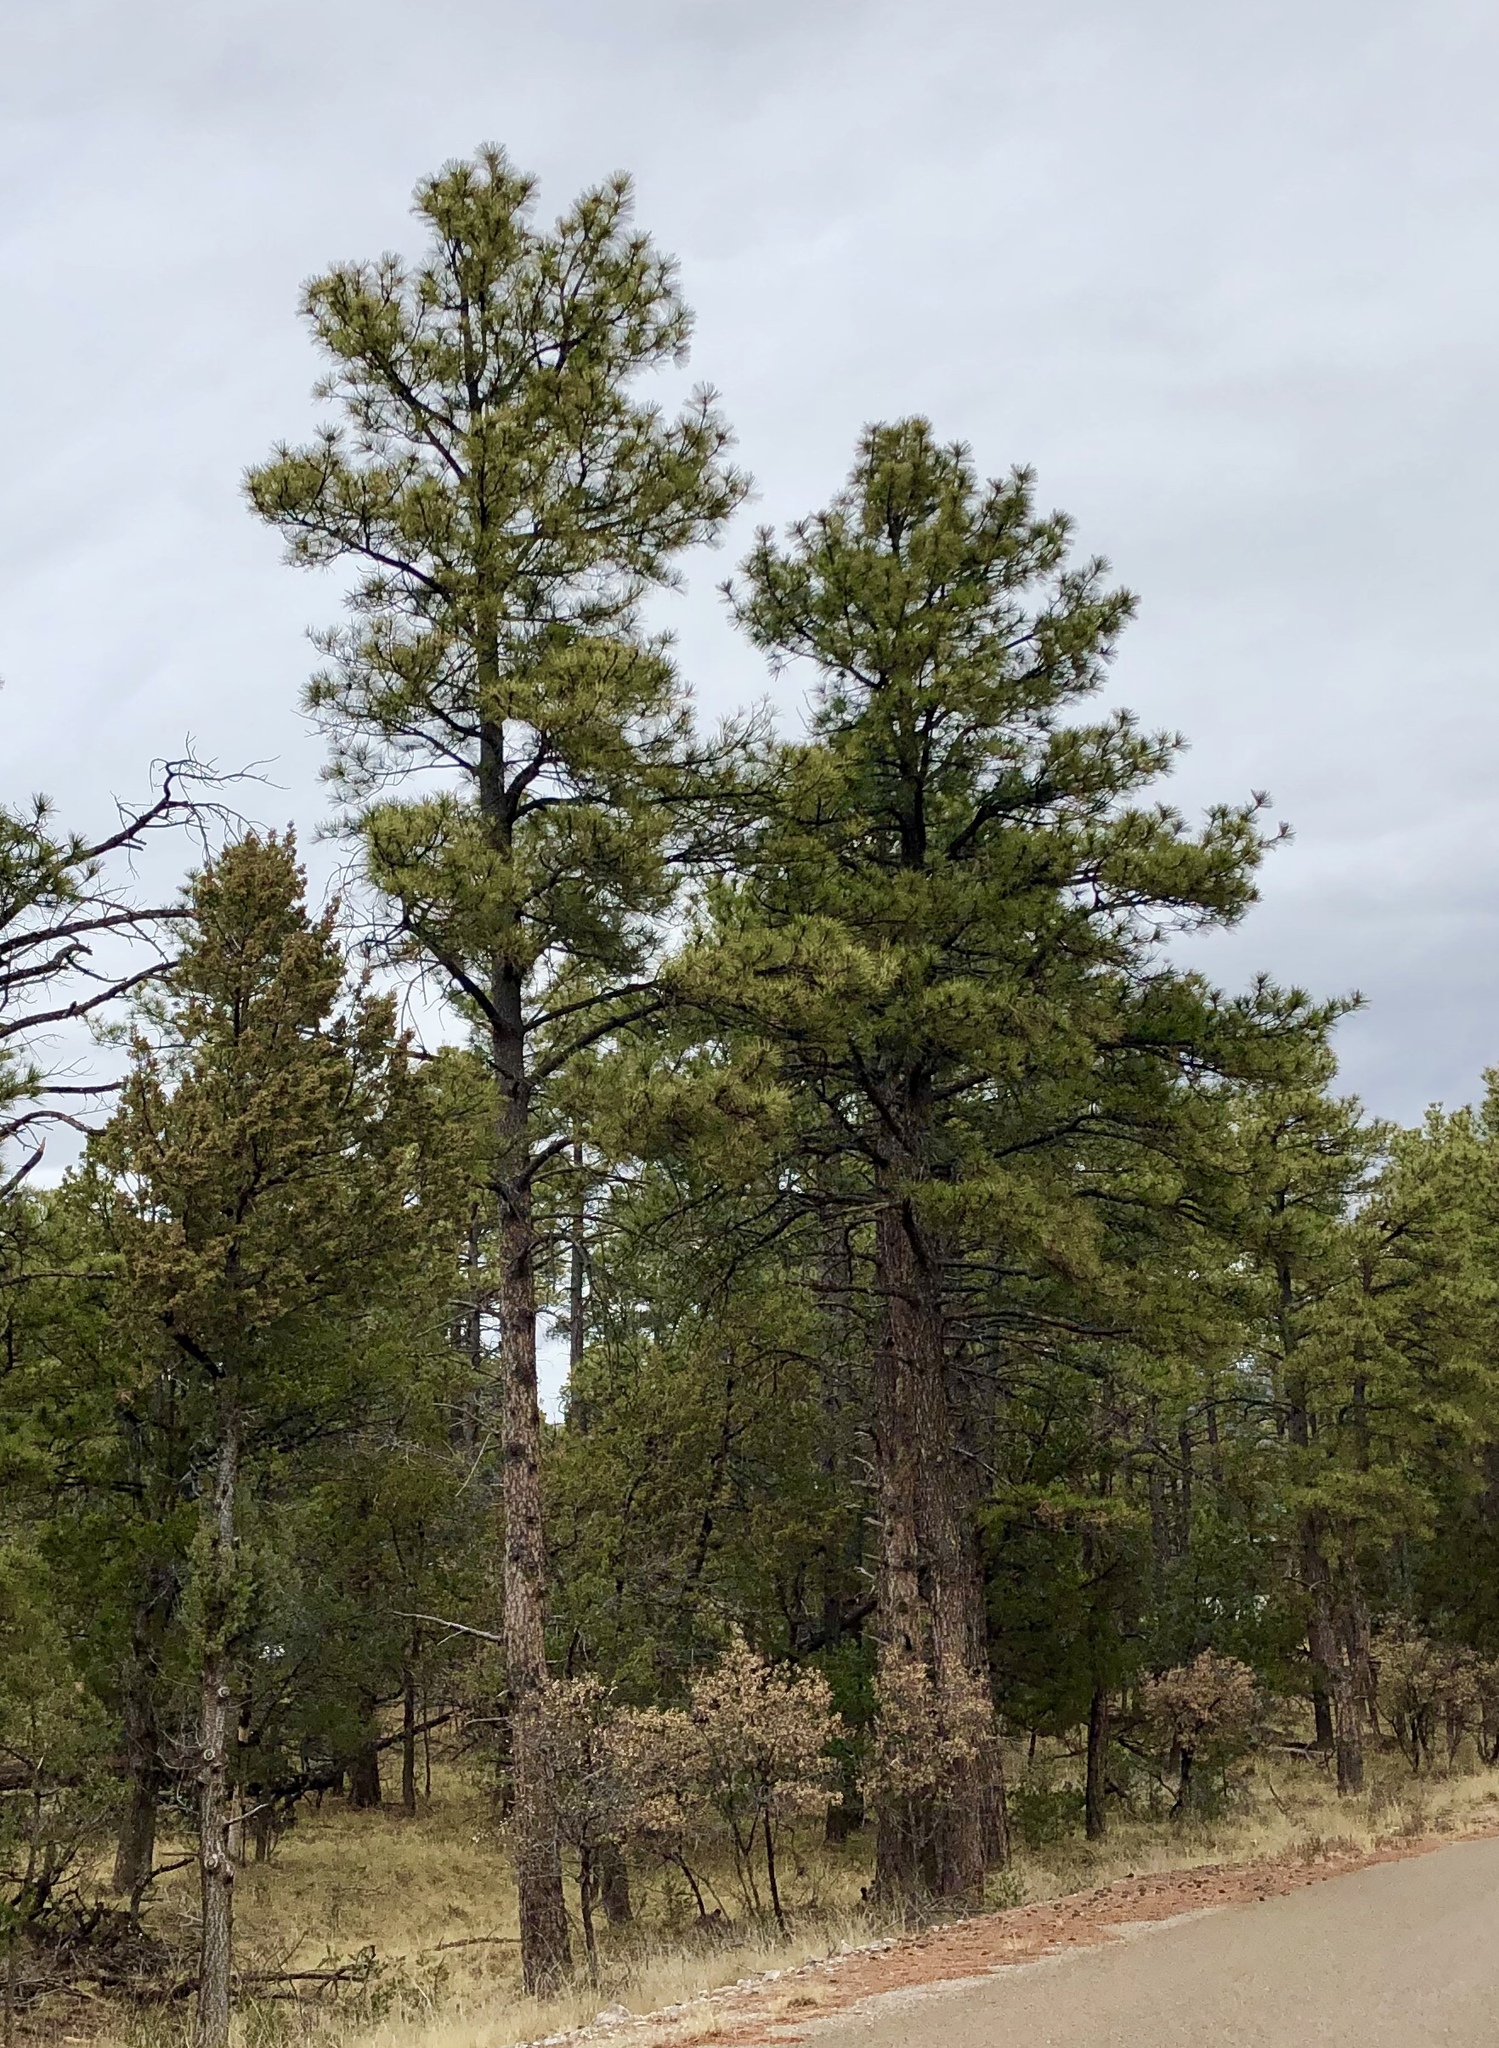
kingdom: Plantae
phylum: Tracheophyta
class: Pinopsida
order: Pinales
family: Pinaceae
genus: Pinus
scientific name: Pinus ponderosa
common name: Western yellow-pine
